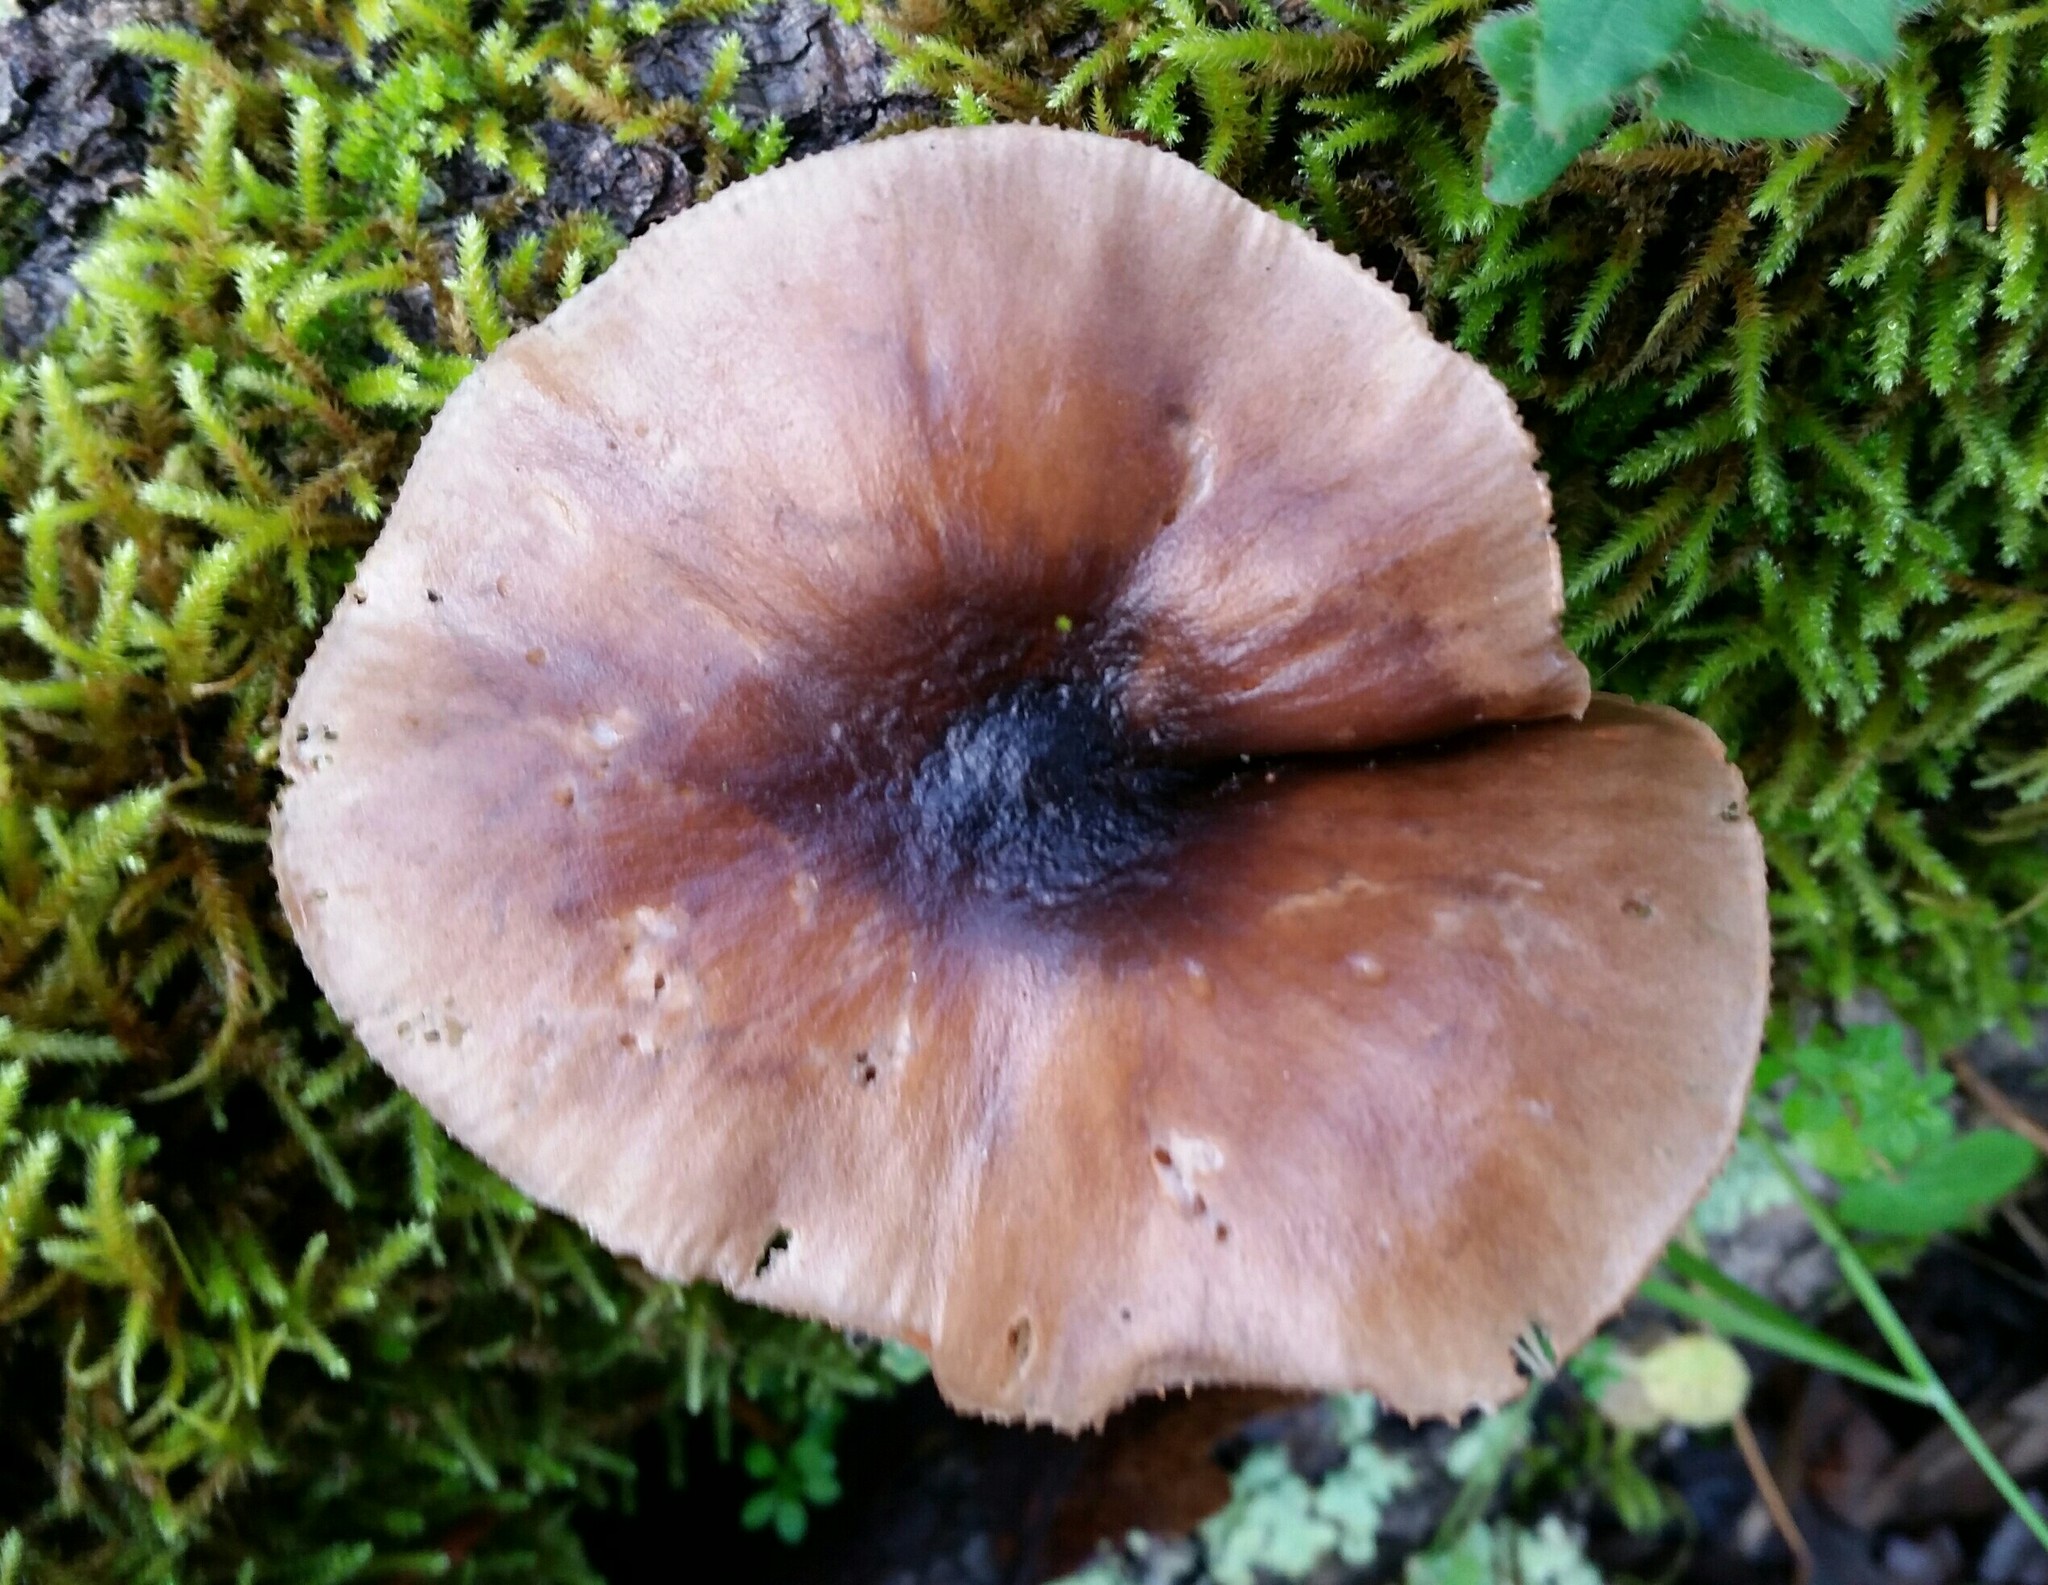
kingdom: Fungi
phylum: Basidiomycota
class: Agaricomycetes
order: Agaricales
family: Pluteaceae
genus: Pluteus
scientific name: Pluteus cervinus
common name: Deer shield
